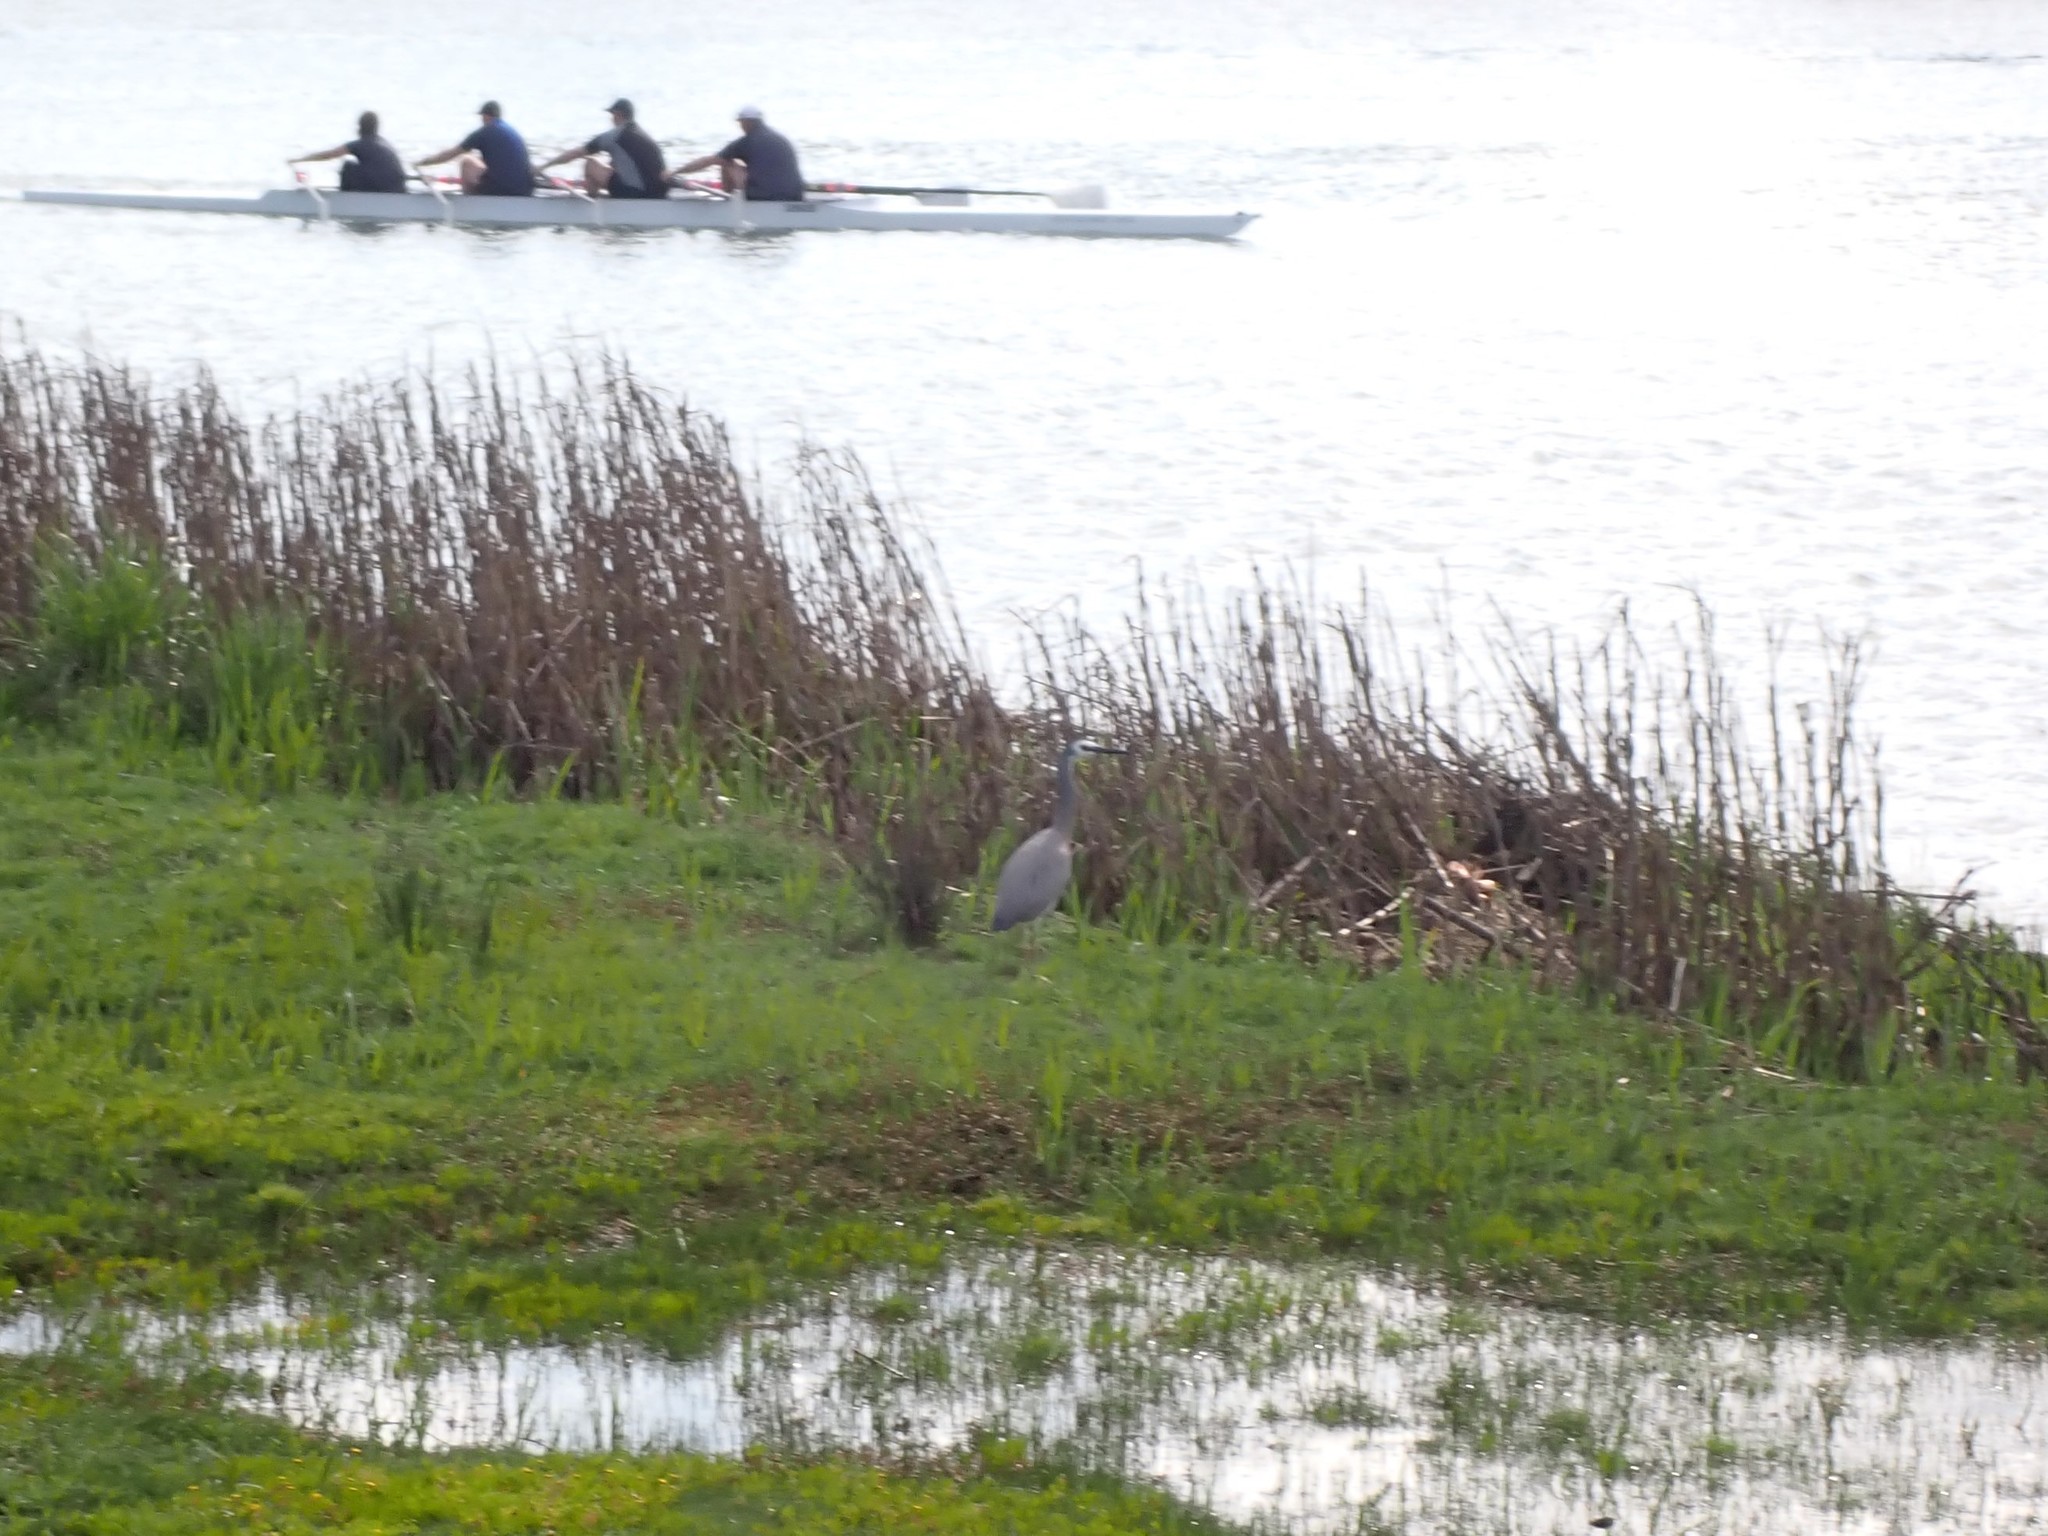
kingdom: Animalia
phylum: Chordata
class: Aves
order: Pelecaniformes
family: Ardeidae
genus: Egretta
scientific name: Egretta novaehollandiae
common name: White-faced heron
